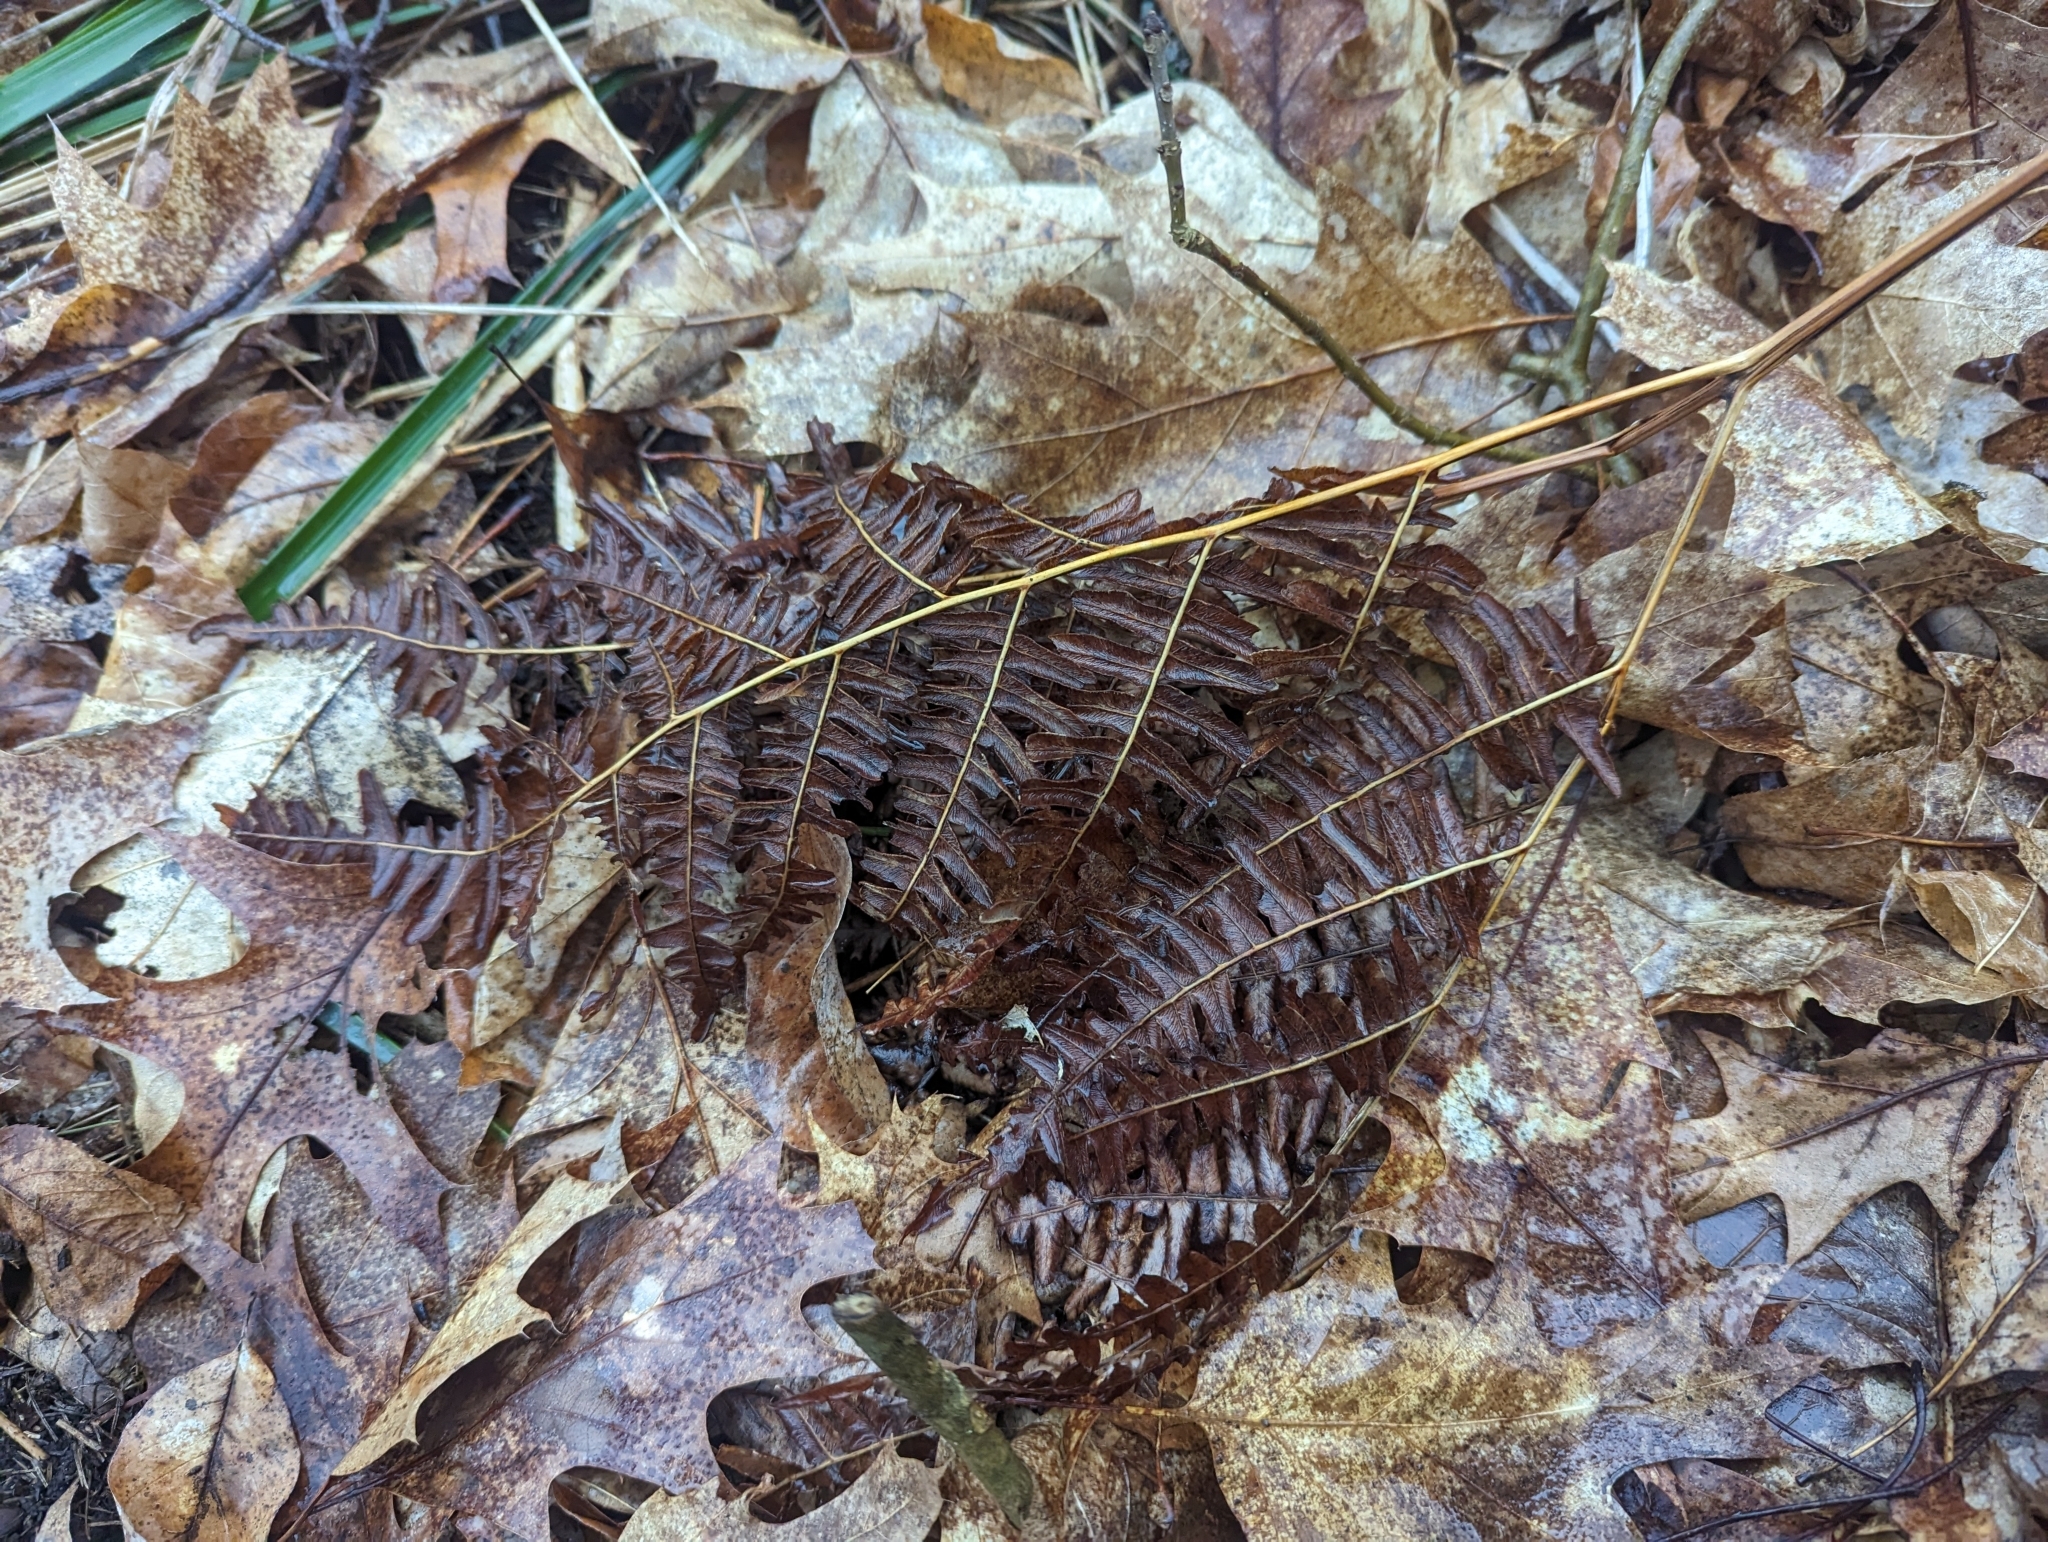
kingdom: Plantae
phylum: Tracheophyta
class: Polypodiopsida
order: Polypodiales
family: Dennstaedtiaceae
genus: Pteridium
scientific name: Pteridium aquilinum
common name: Bracken
